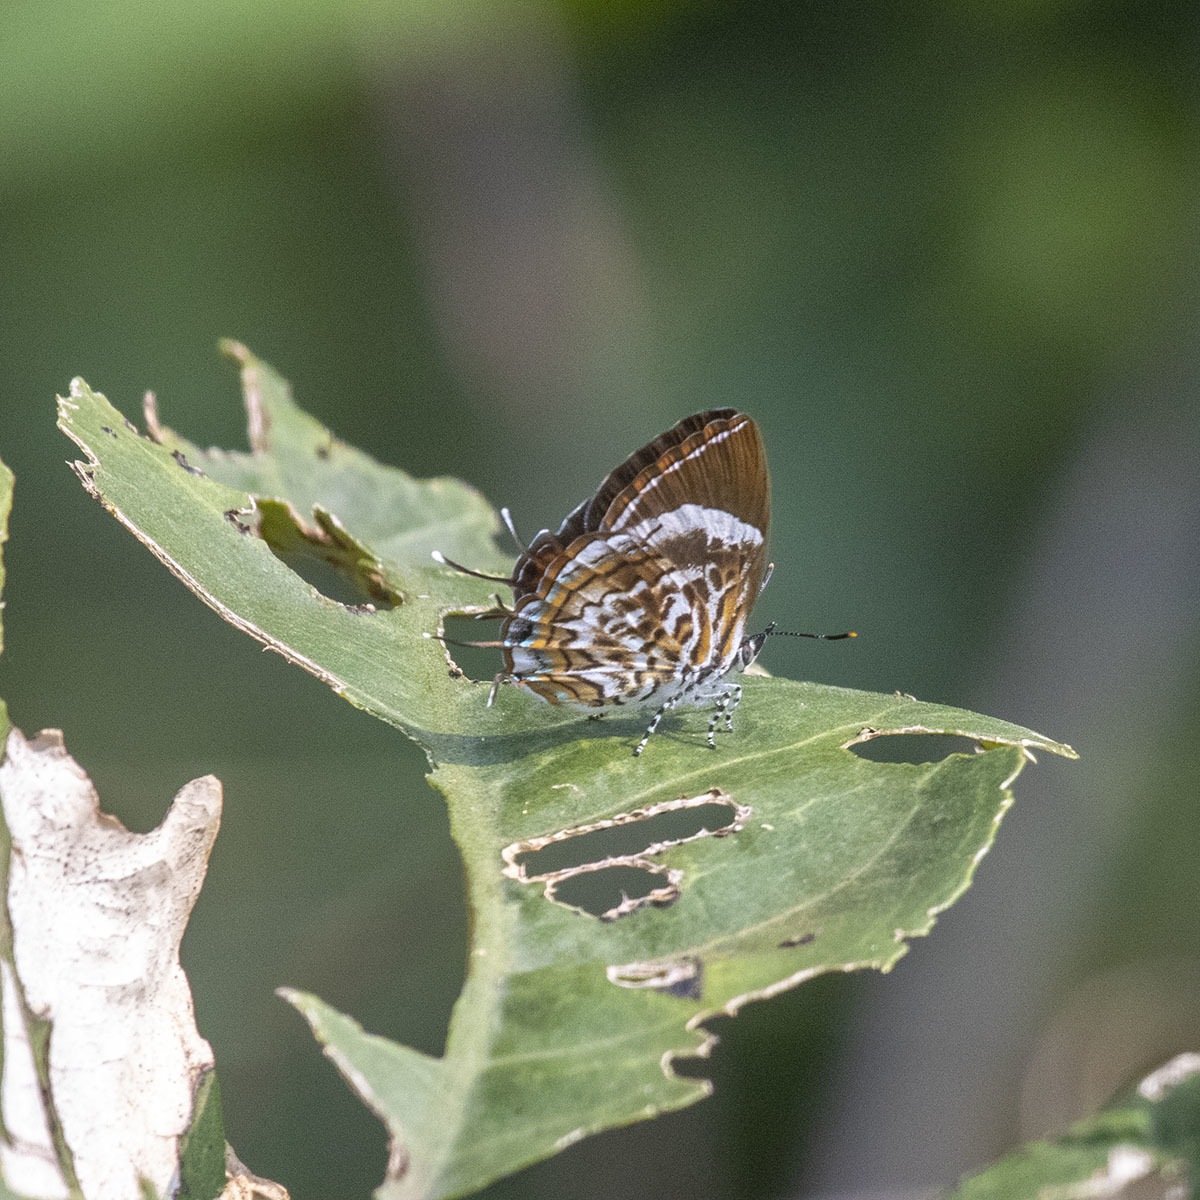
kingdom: Animalia
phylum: Arthropoda
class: Insecta
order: Lepidoptera
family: Lycaenidae
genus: Rathinda
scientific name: Rathinda amor
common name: Monkey puzzle
